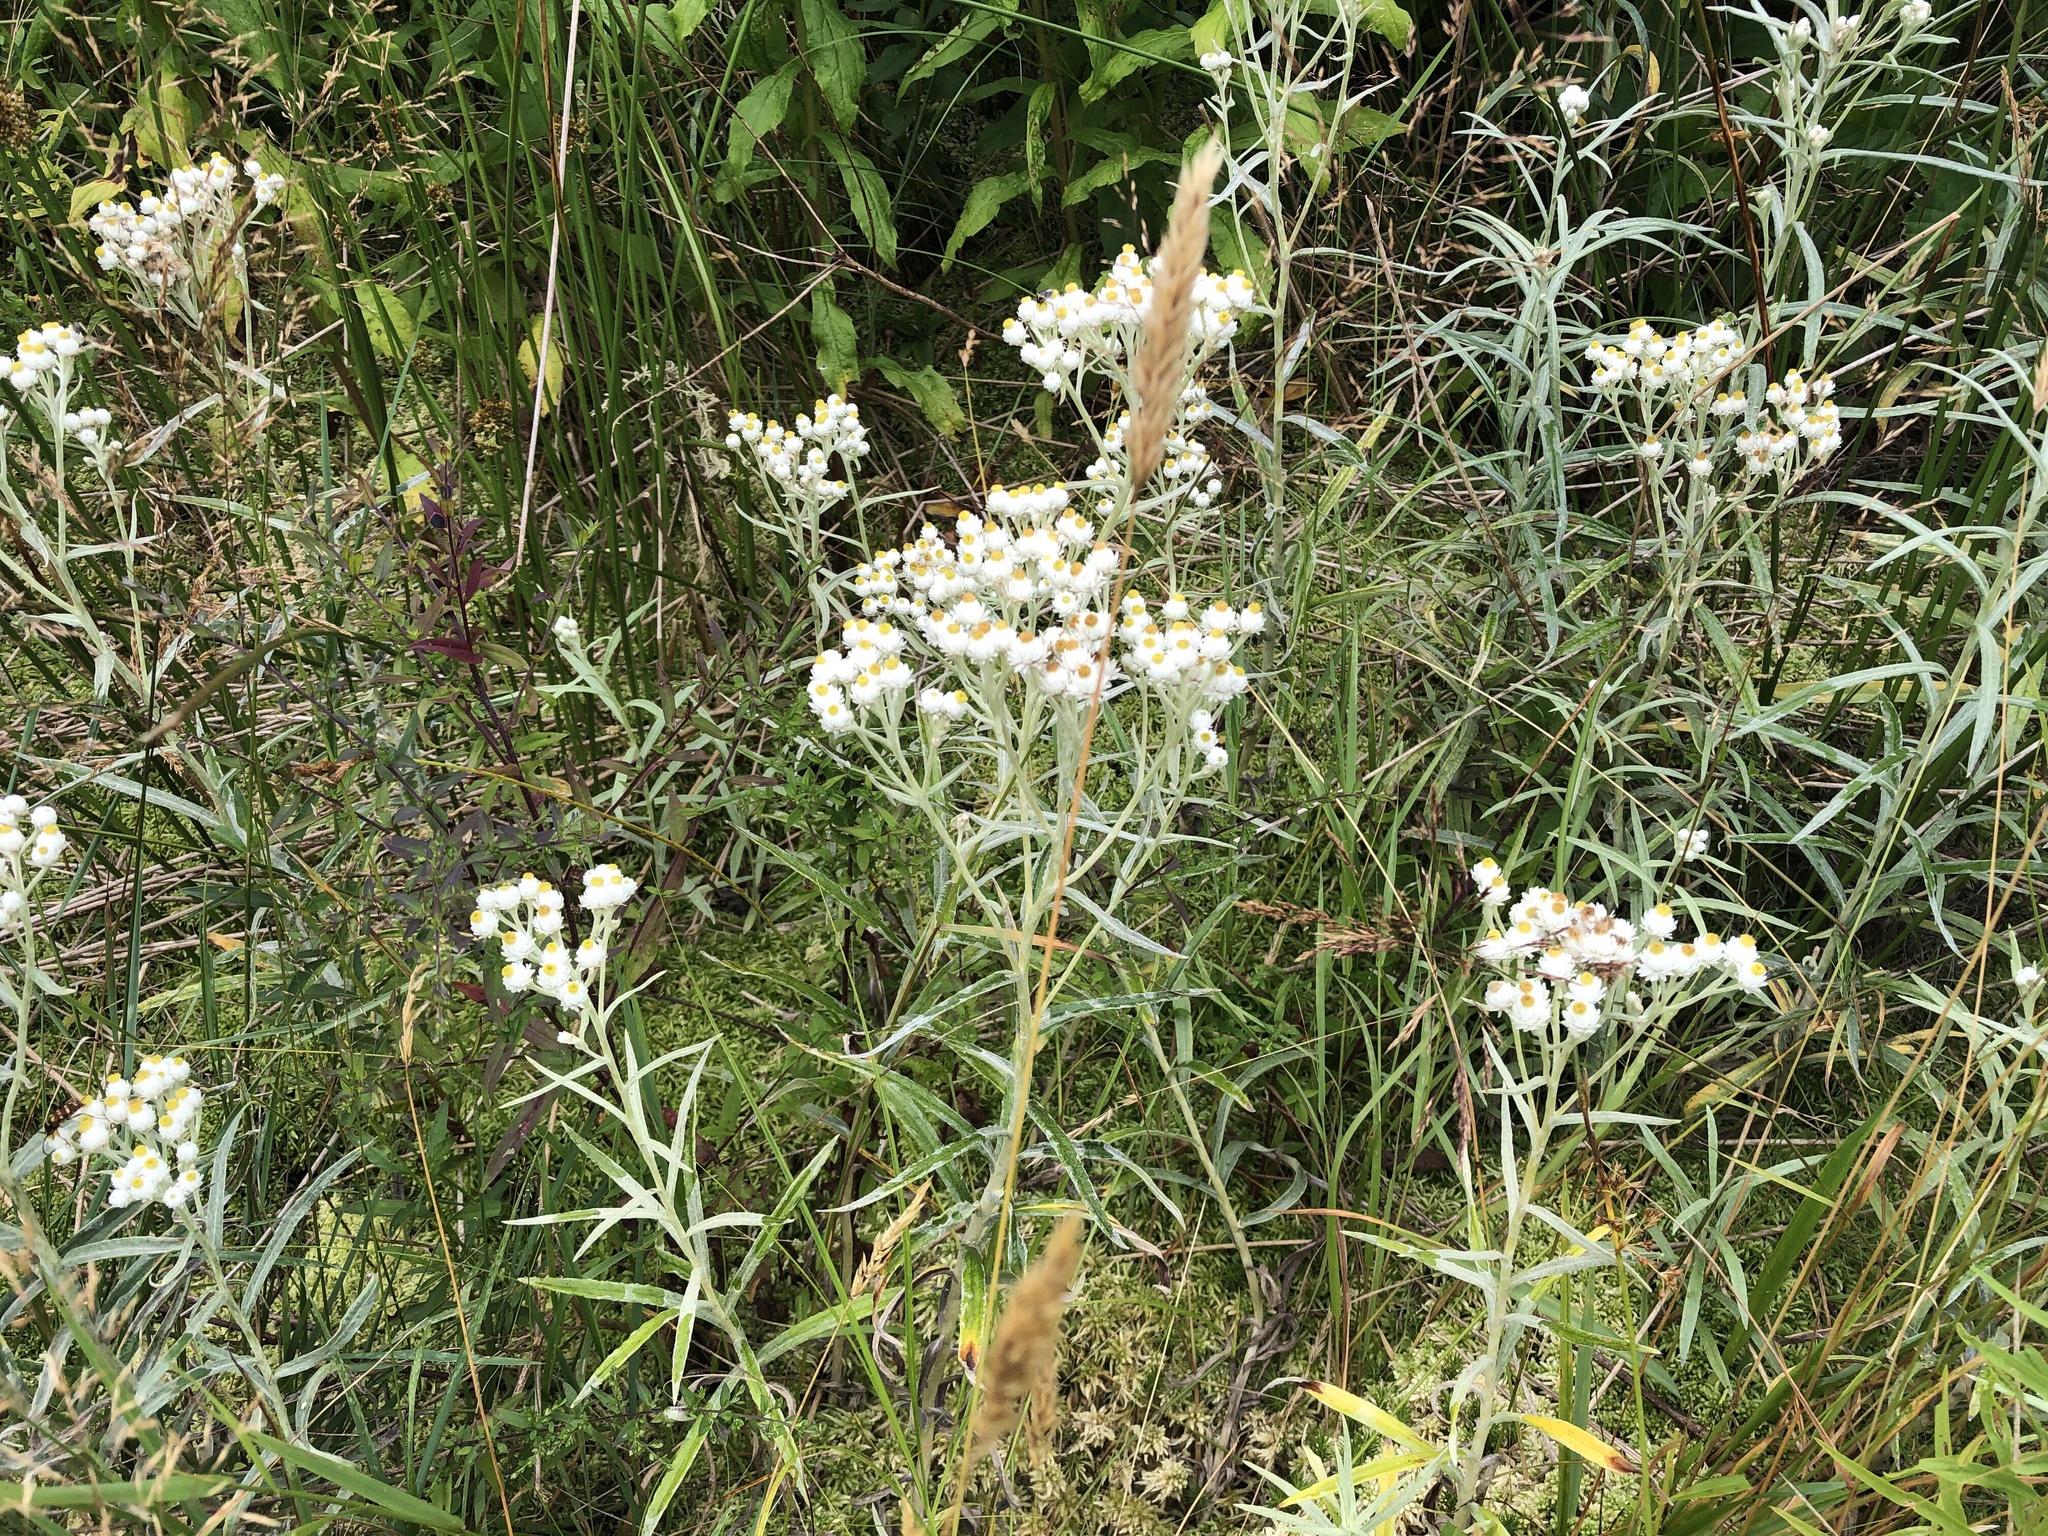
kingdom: Plantae
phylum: Tracheophyta
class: Magnoliopsida
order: Asterales
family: Asteraceae
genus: Anaphalis
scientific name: Anaphalis margaritacea
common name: Pearly everlasting
